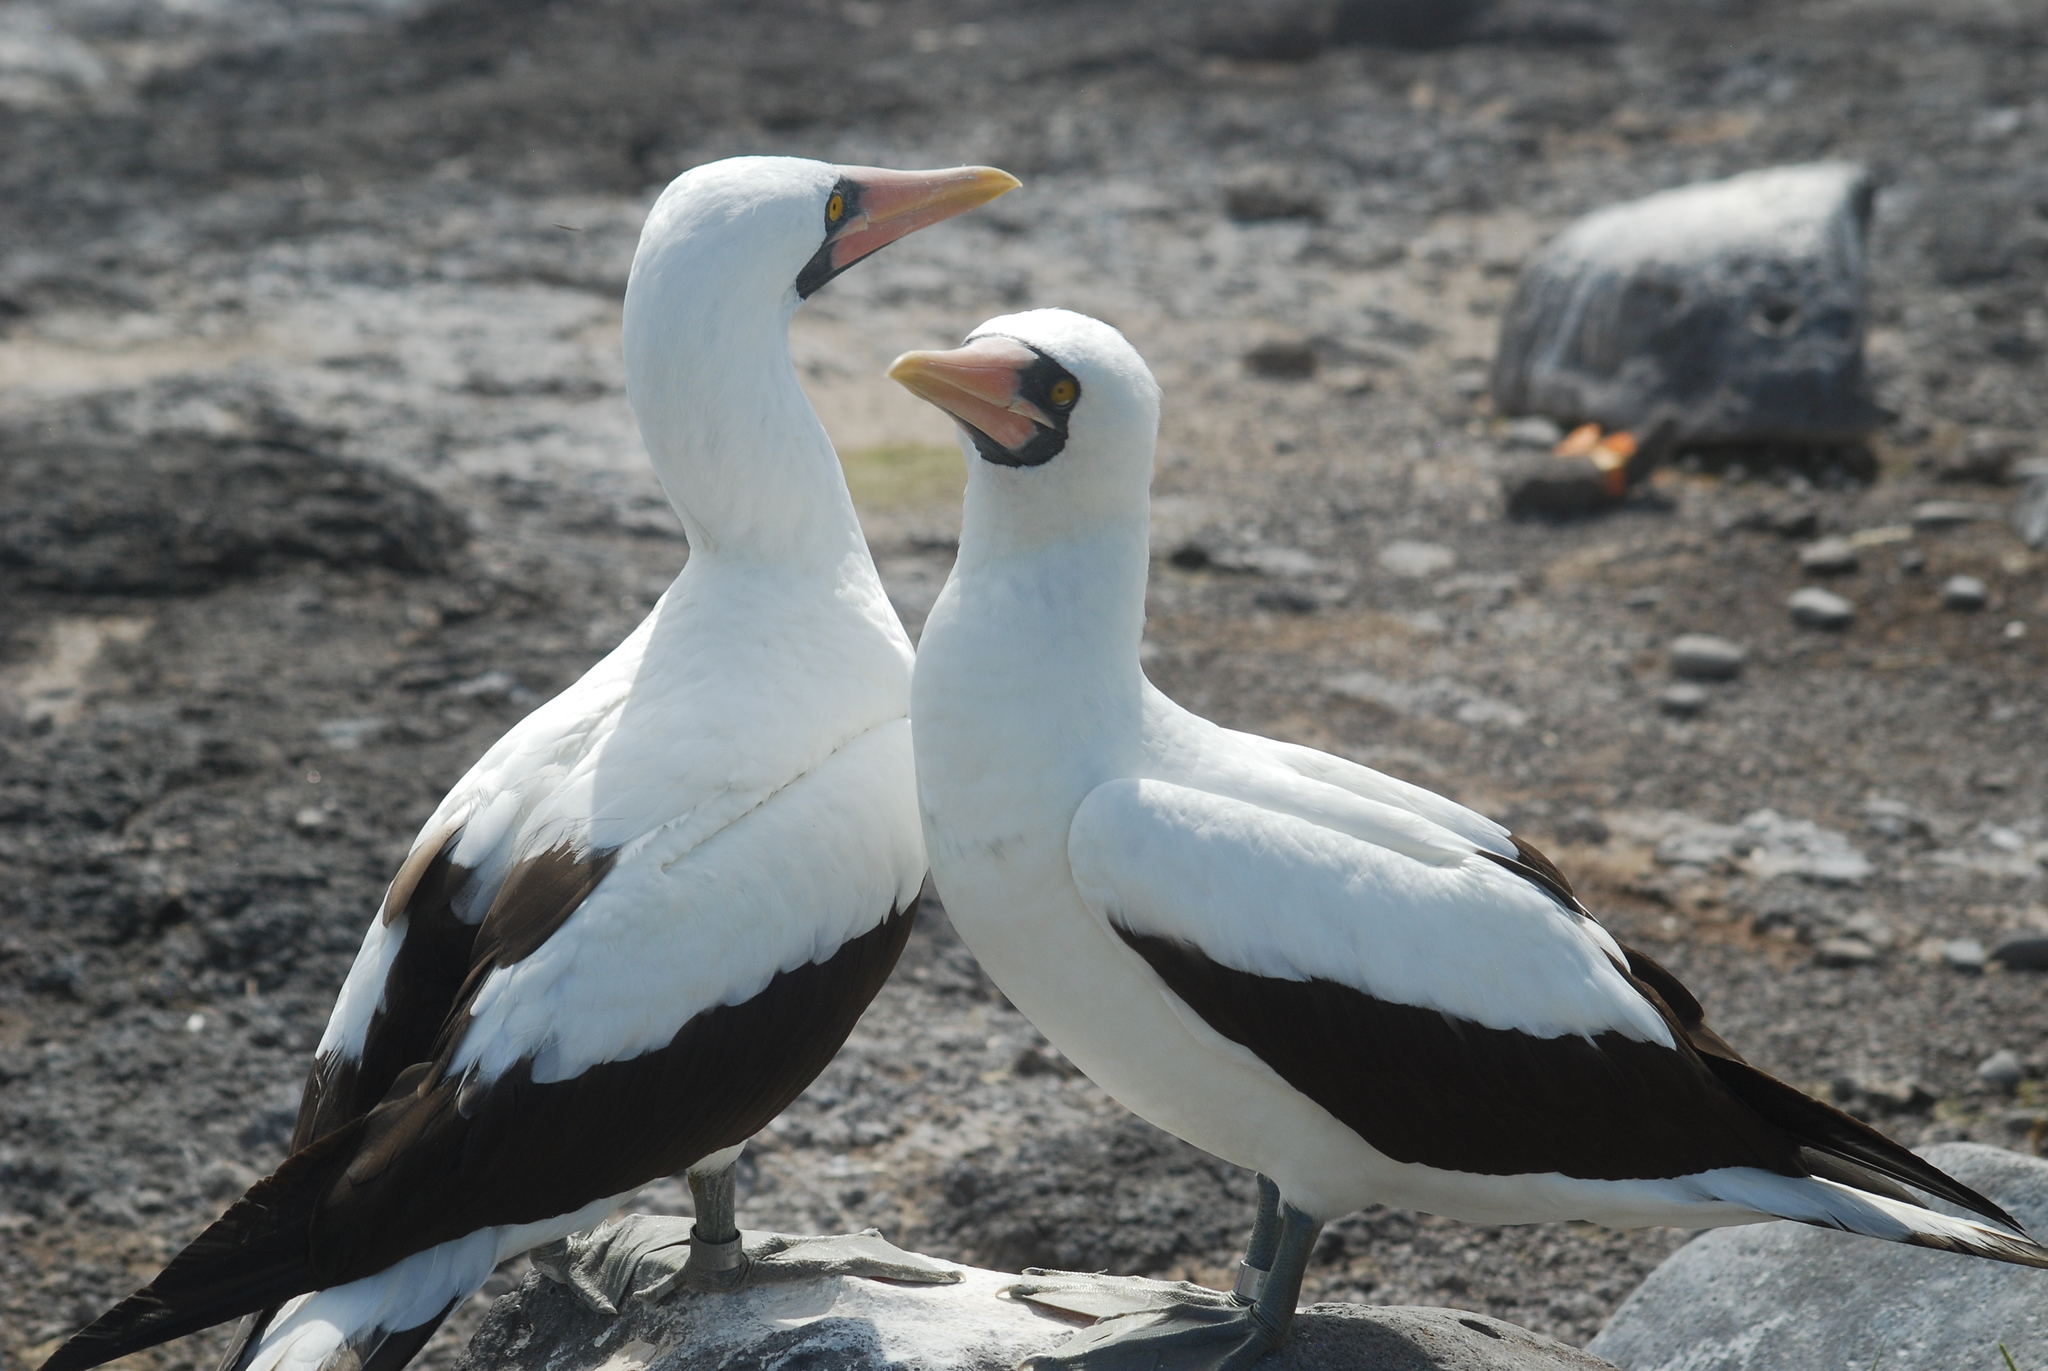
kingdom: Animalia
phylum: Chordata
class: Aves
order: Suliformes
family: Sulidae
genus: Sula
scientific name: Sula granti
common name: Nazca booby
